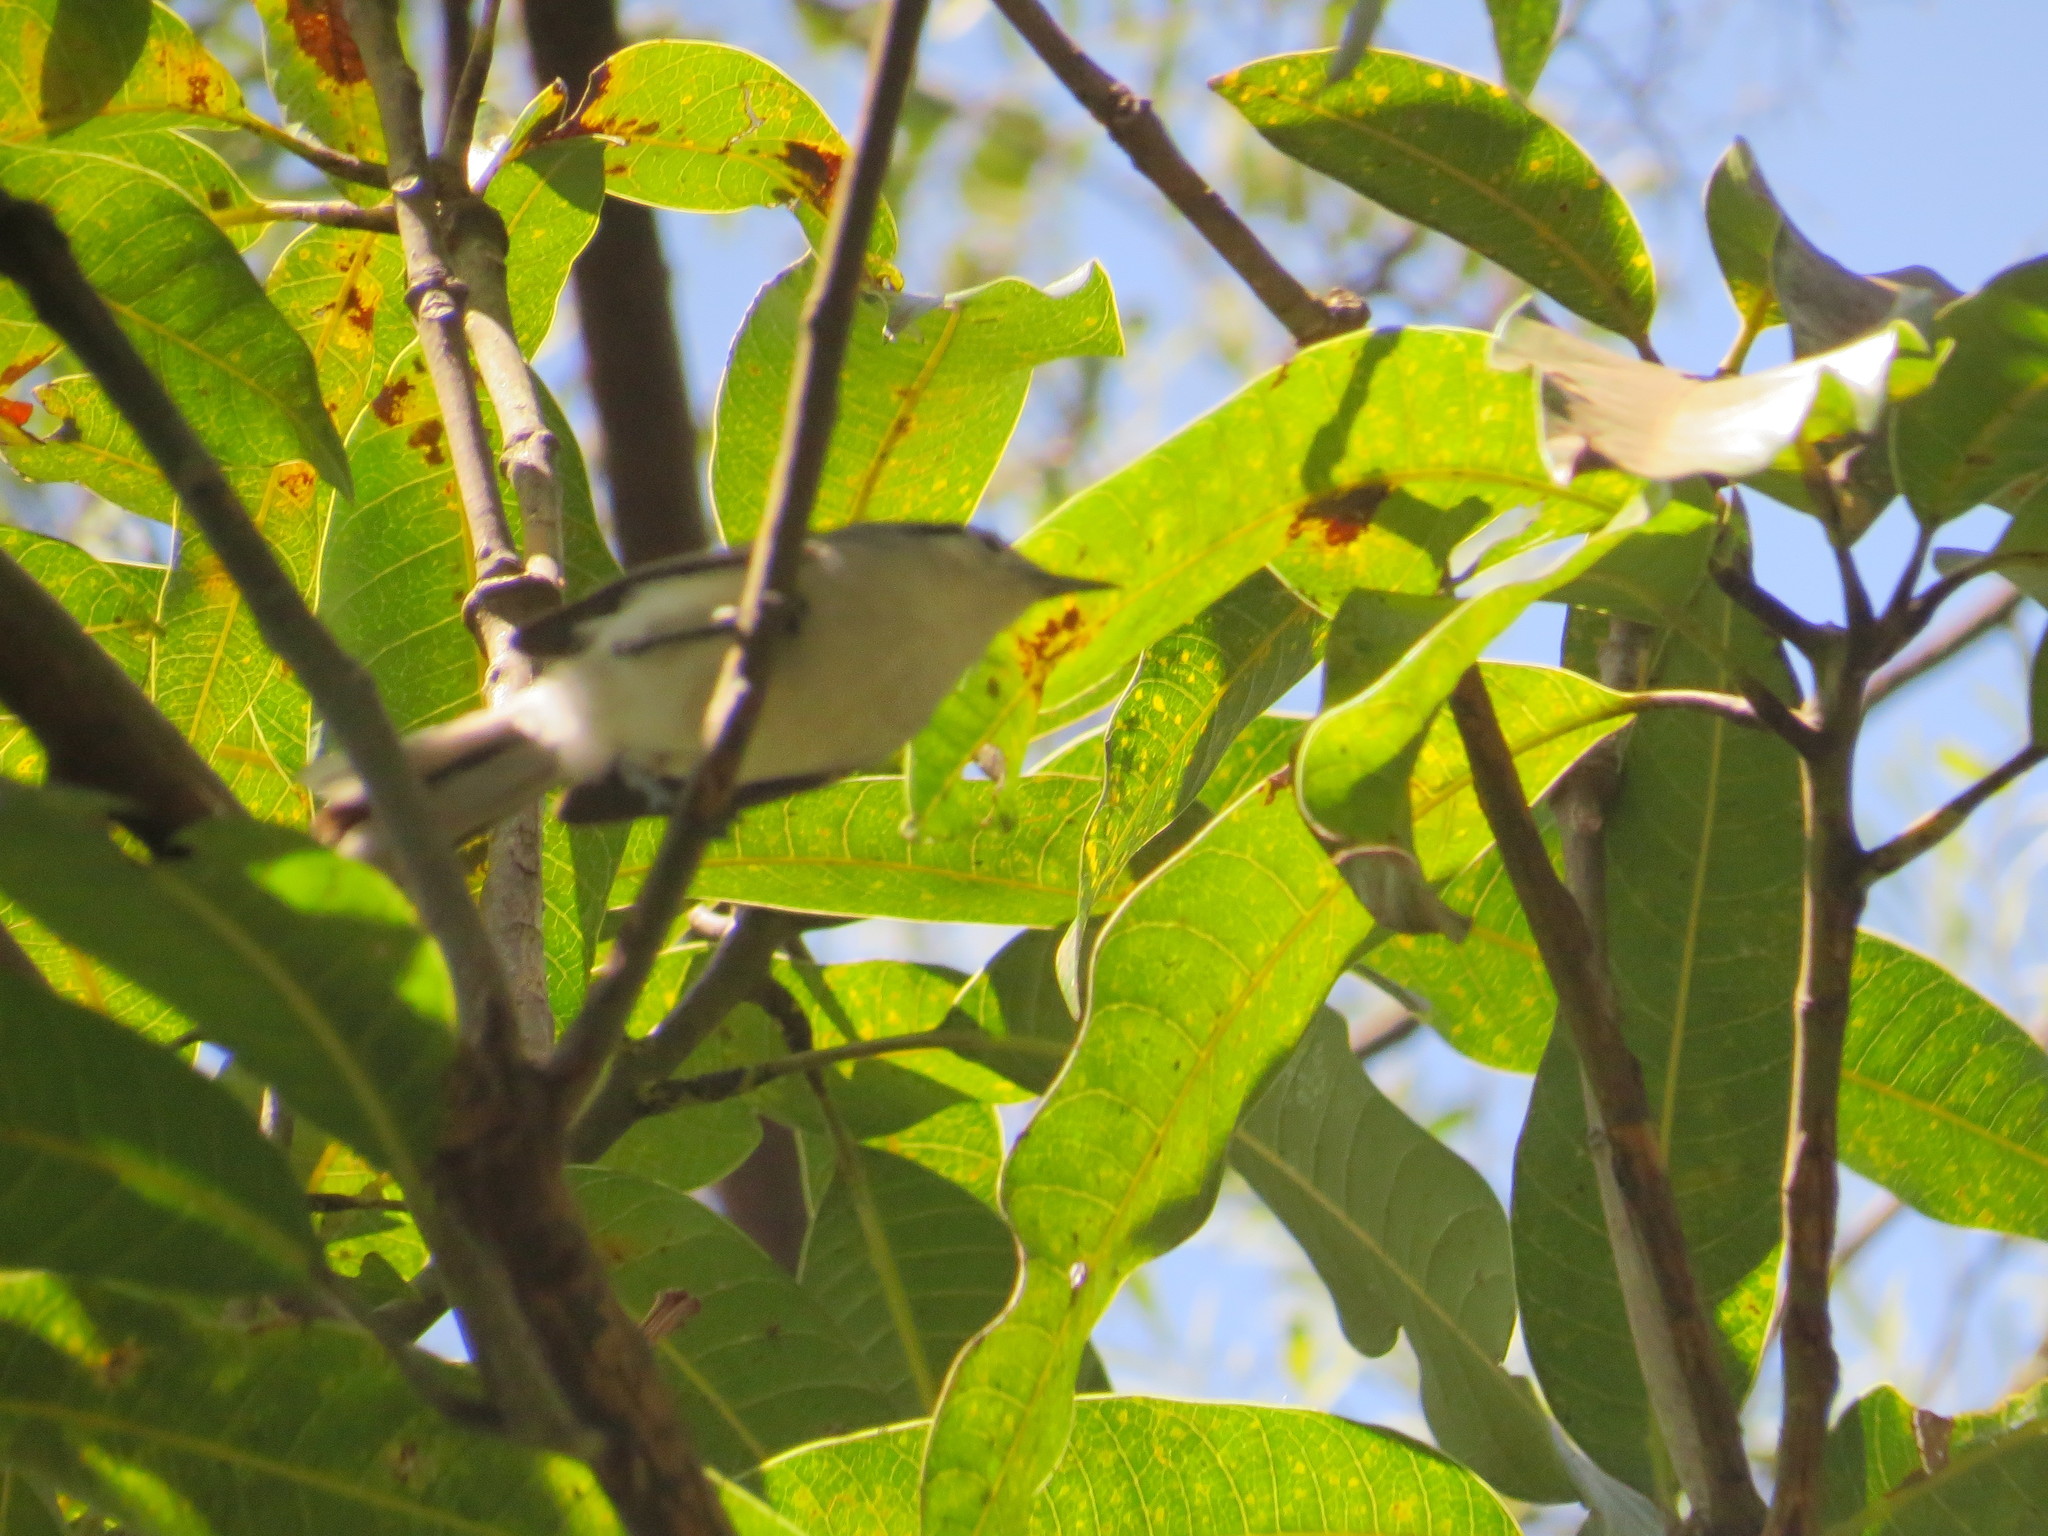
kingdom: Animalia
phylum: Chordata
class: Aves
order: Passeriformes
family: Polioptilidae
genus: Polioptila
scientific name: Polioptila dumicola
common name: Masked gnatcatcher
